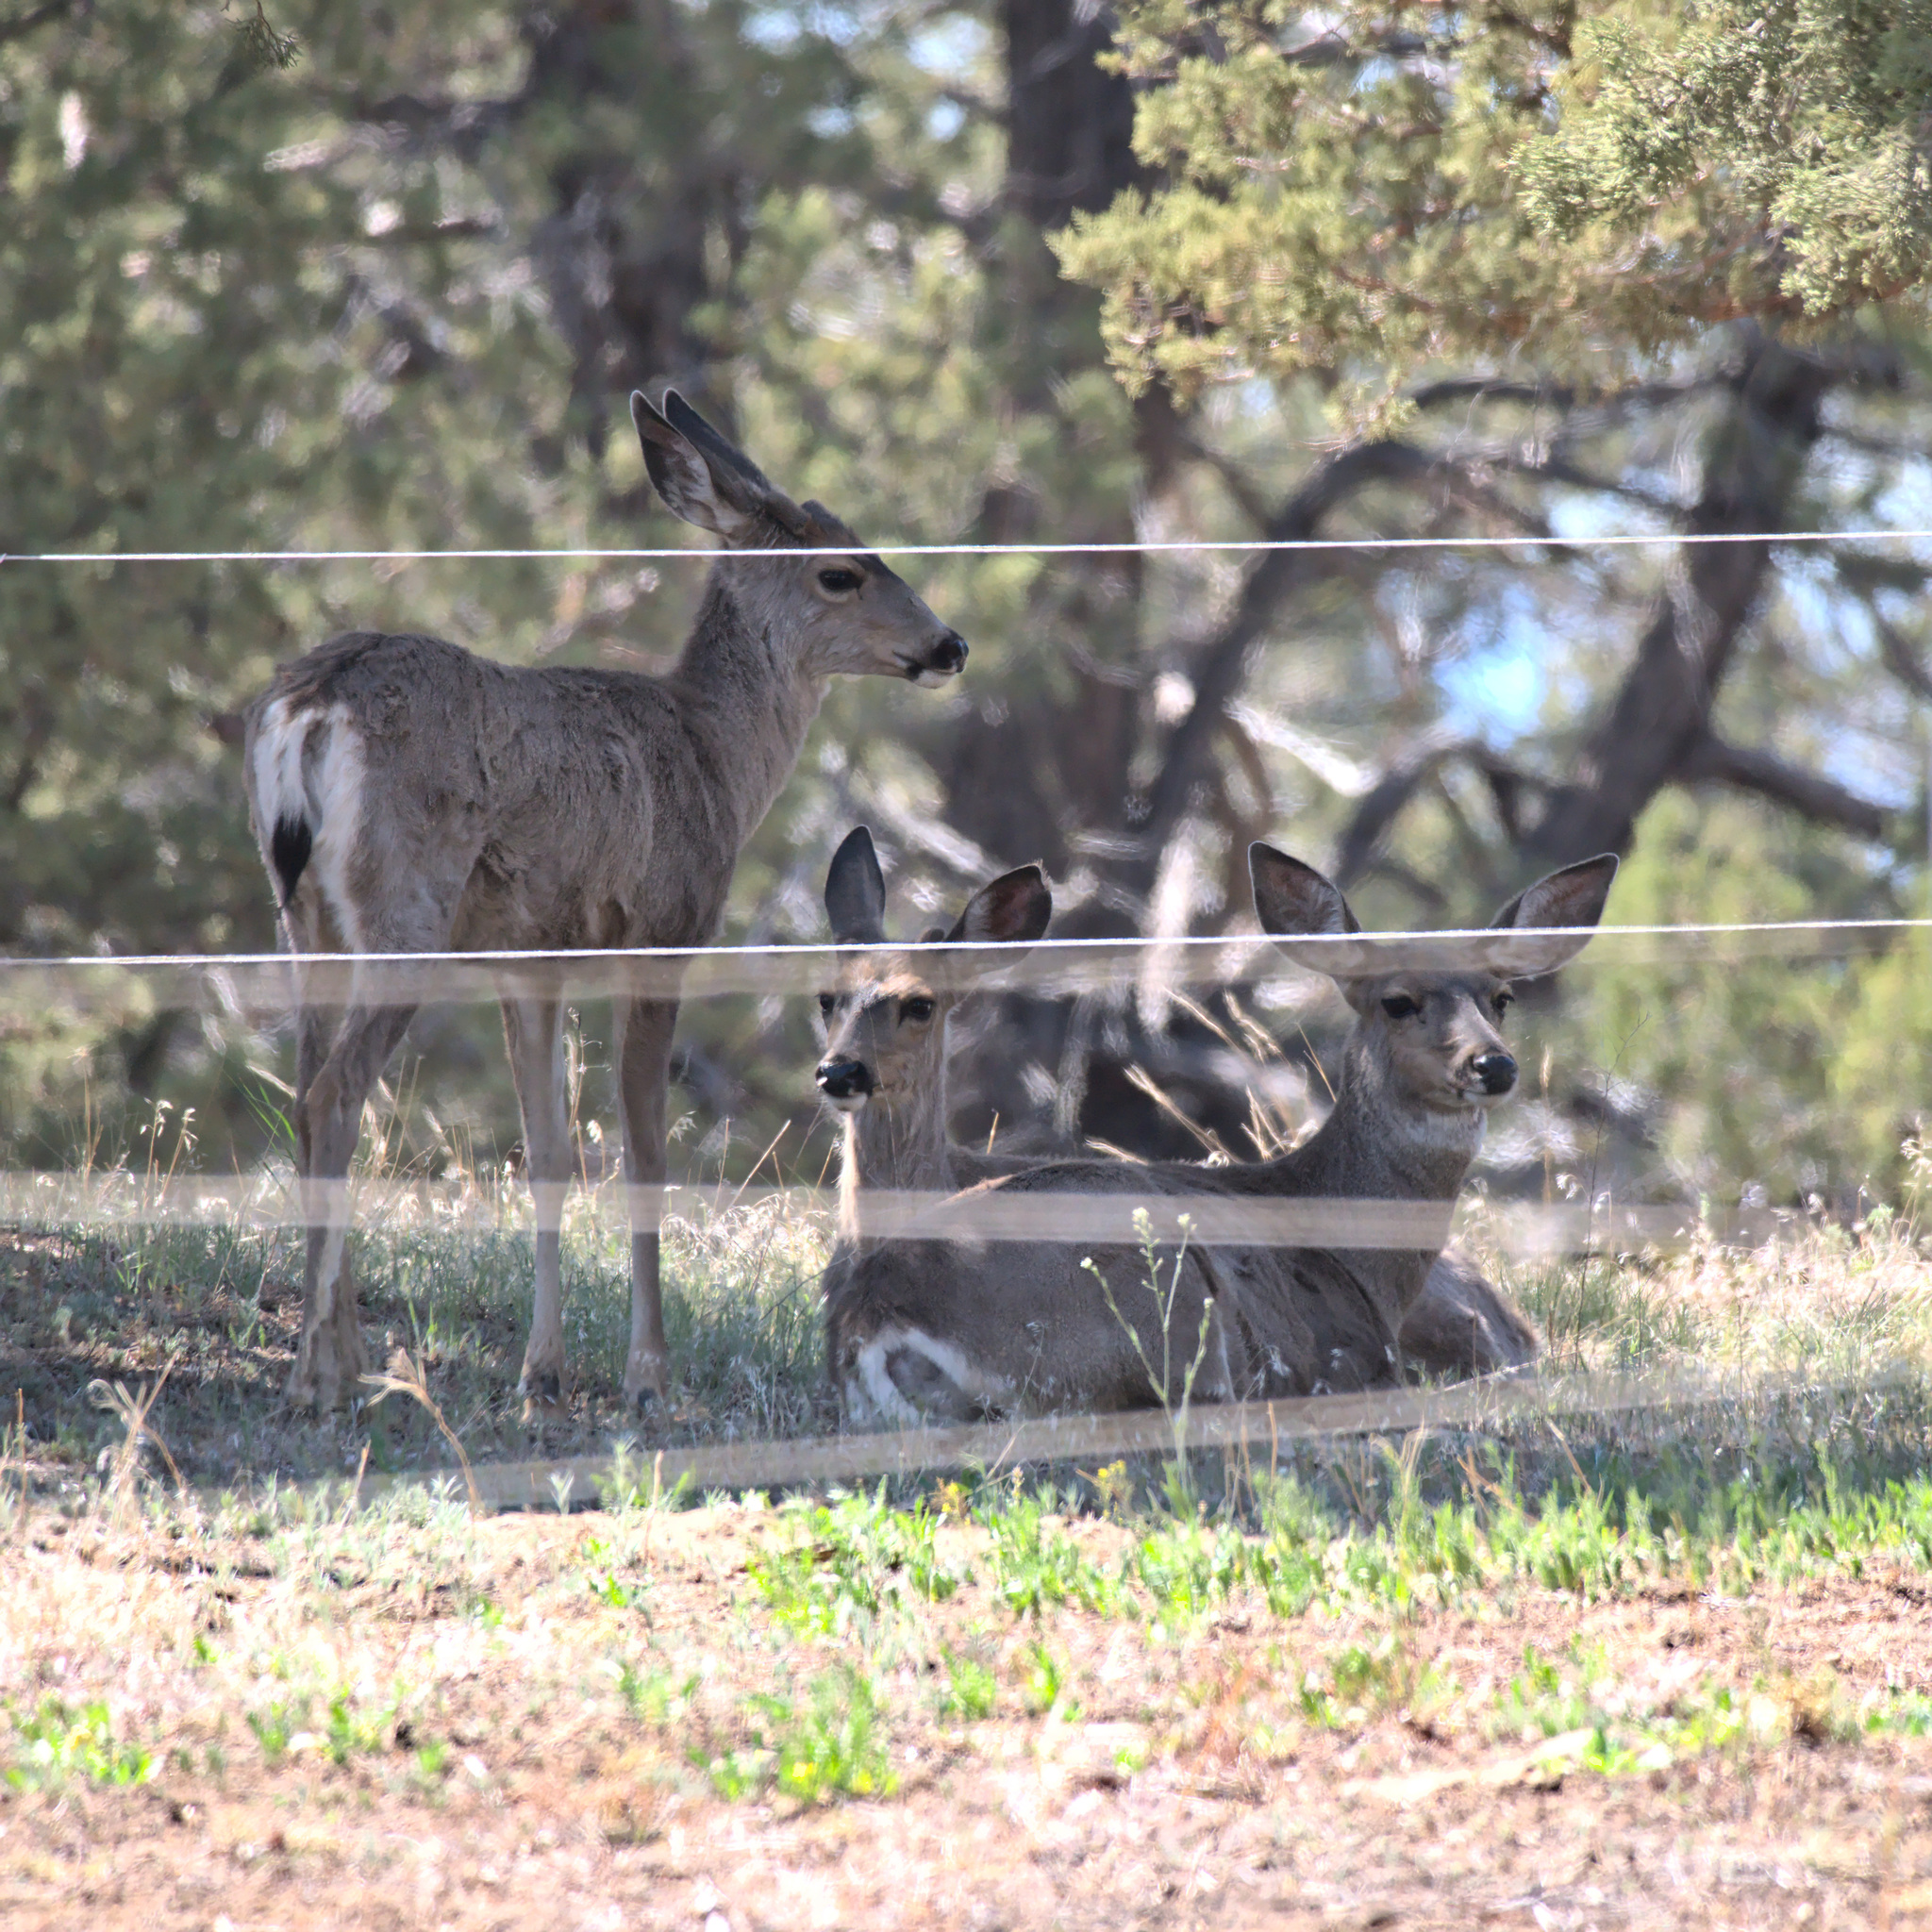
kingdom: Animalia
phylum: Chordata
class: Mammalia
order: Artiodactyla
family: Cervidae
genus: Odocoileus
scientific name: Odocoileus hemionus
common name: Mule deer
